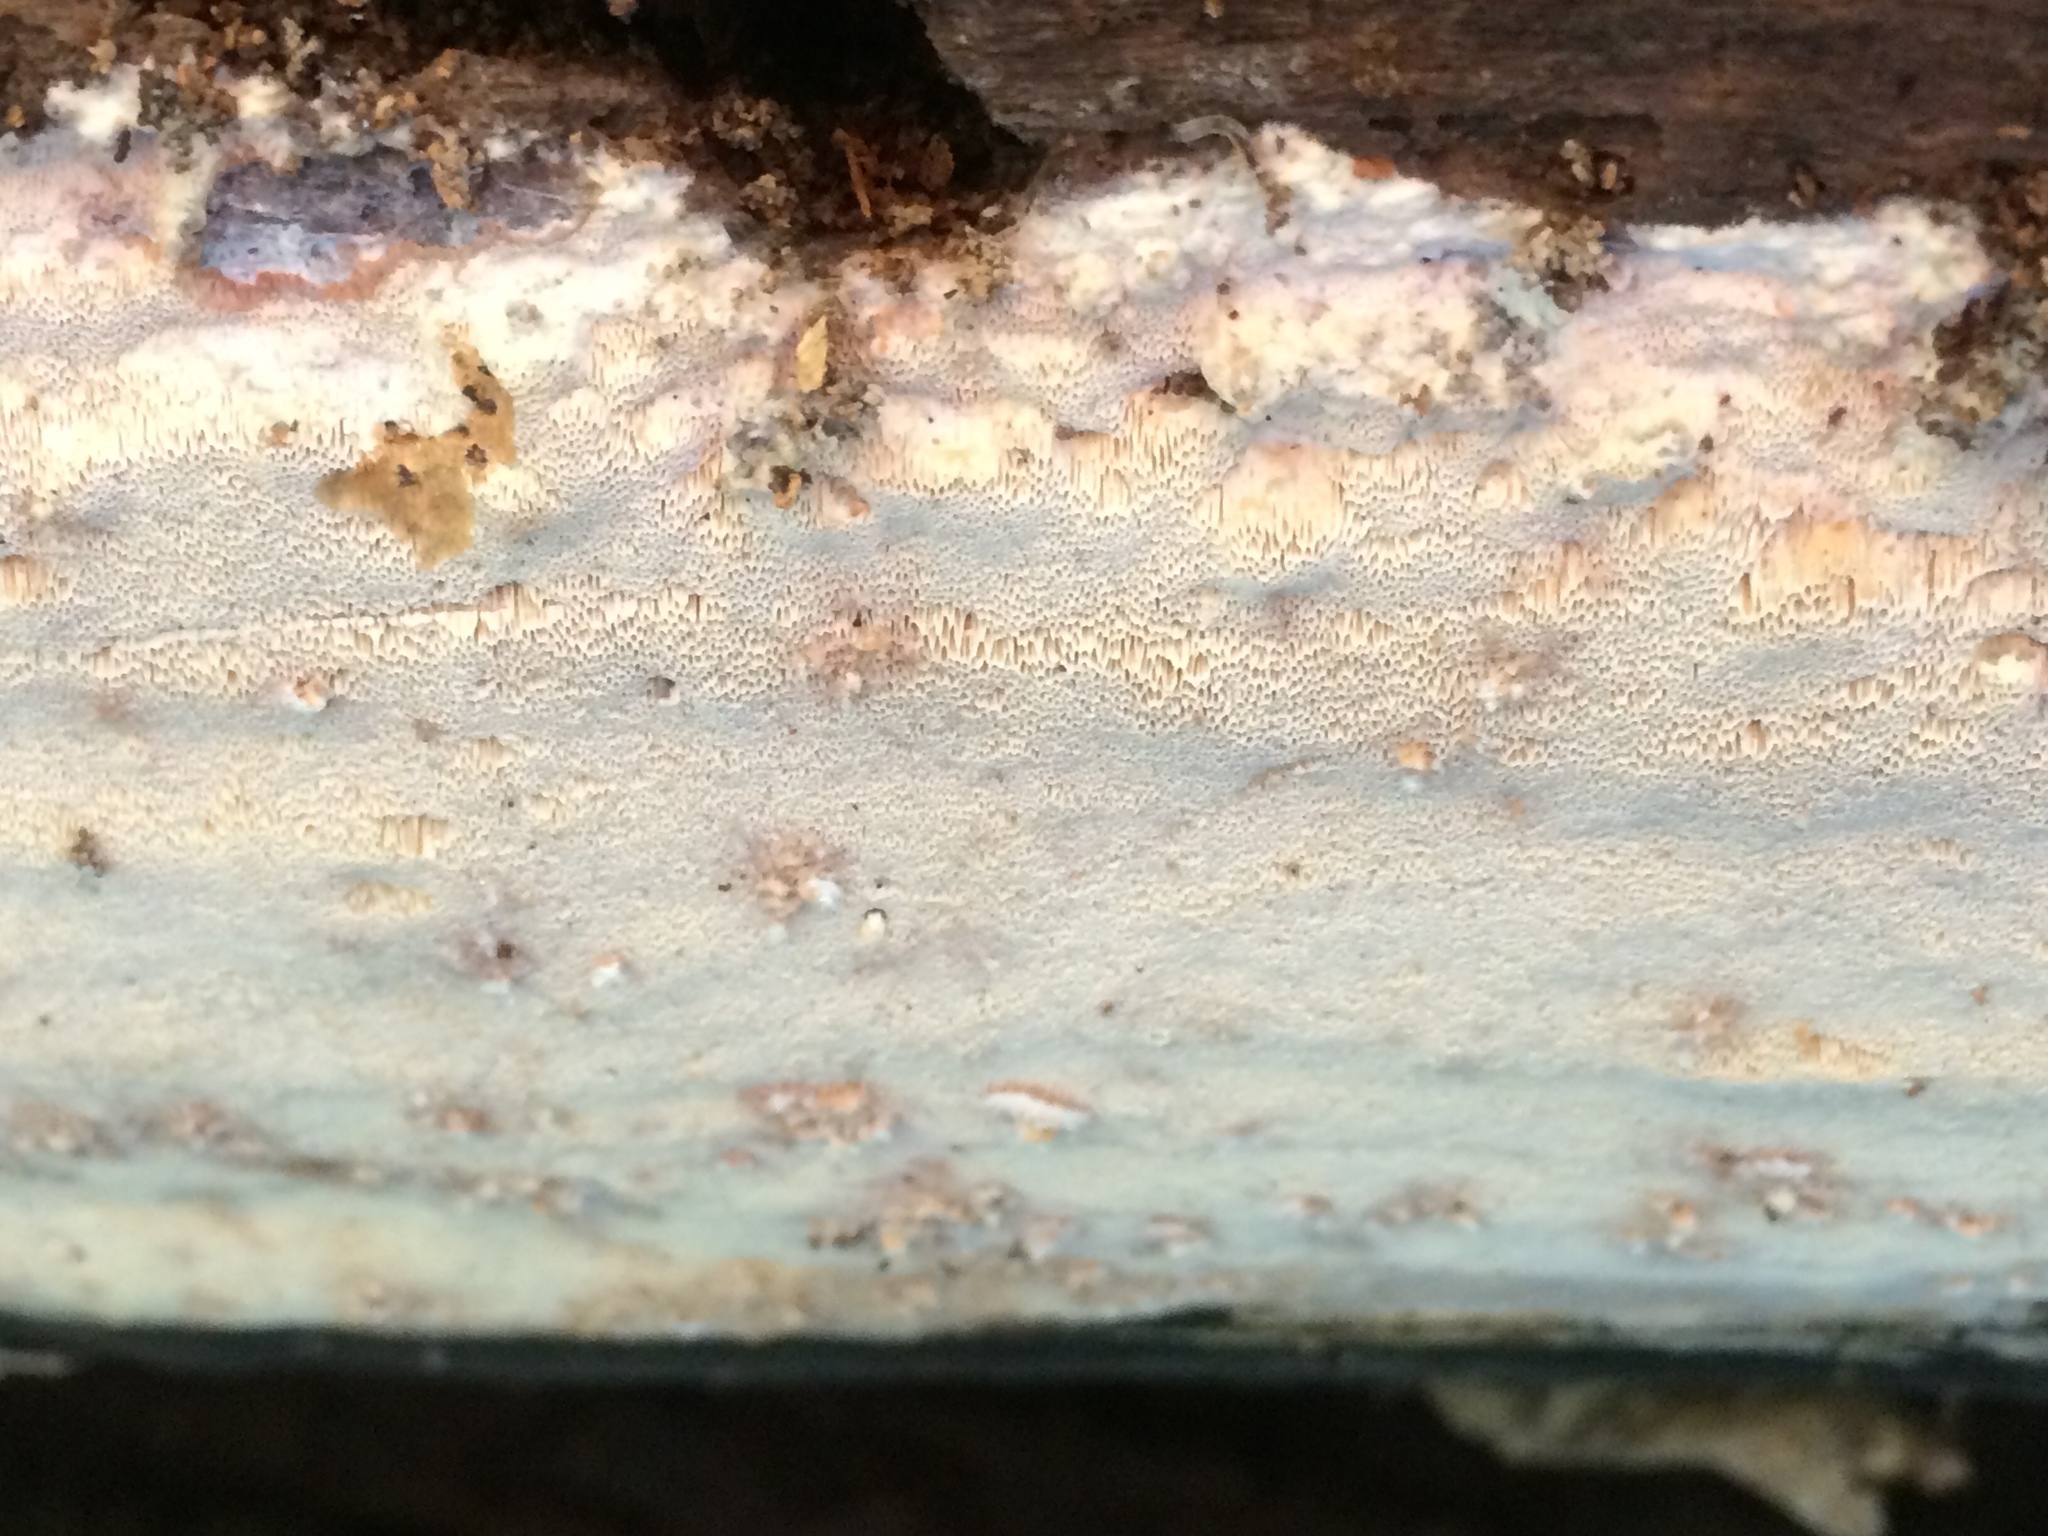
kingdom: Fungi
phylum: Basidiomycota
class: Agaricomycetes
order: Russulales
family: Hericiaceae
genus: Pseudowrightoporia
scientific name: Pseudowrightoporia cylindrospora
